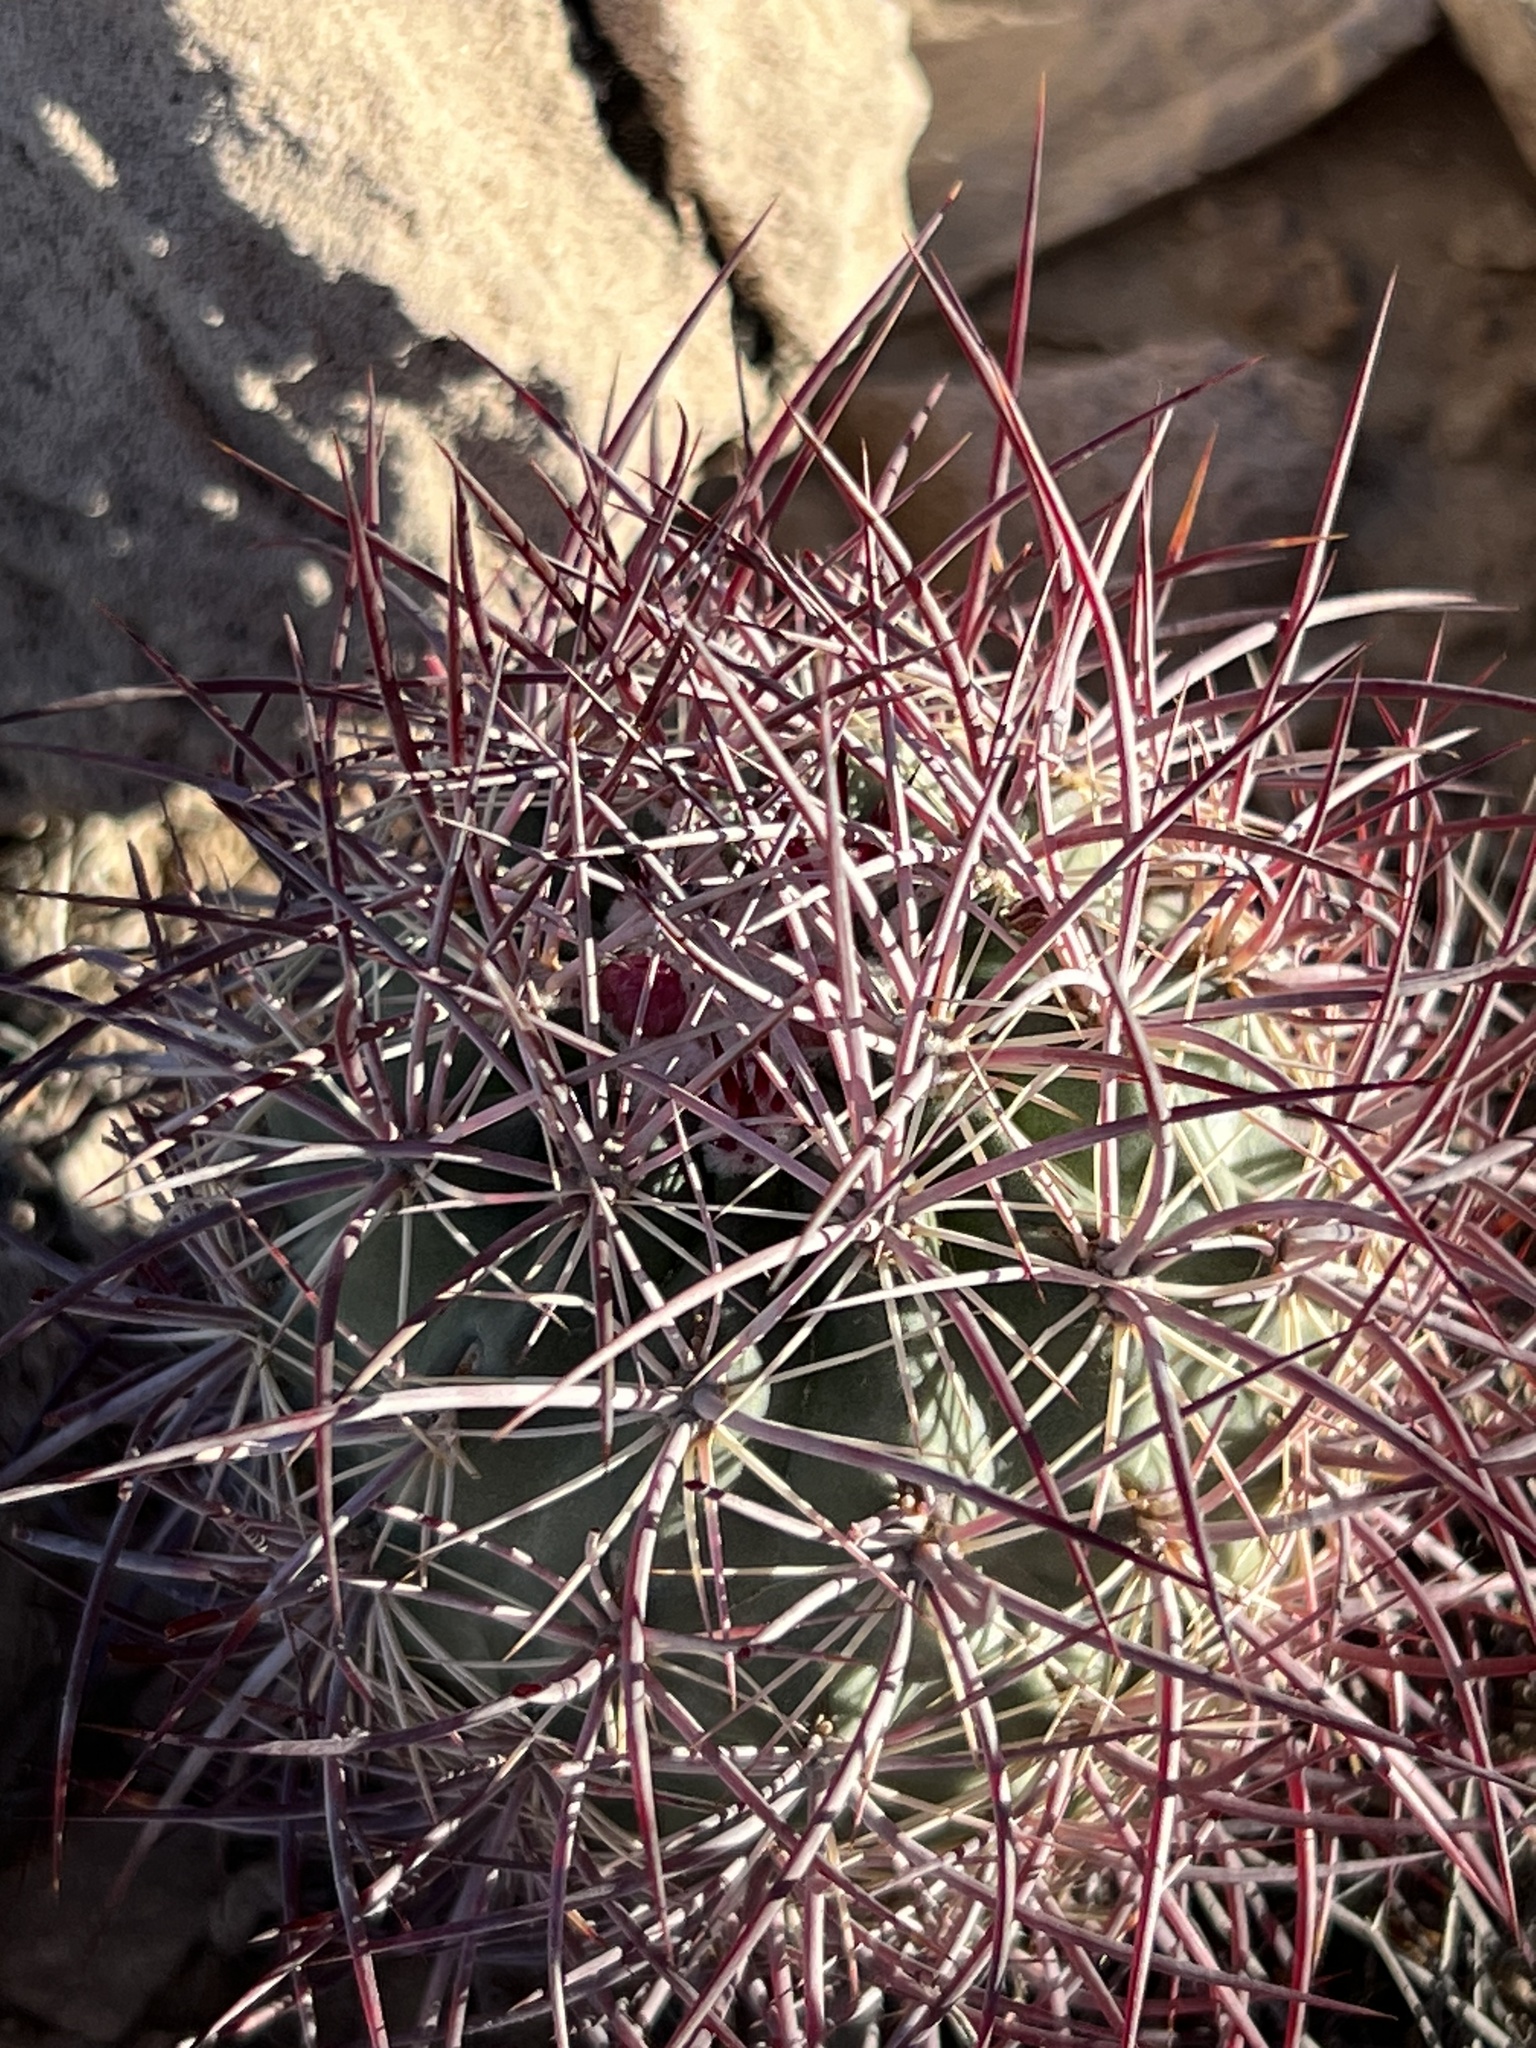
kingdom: Plantae
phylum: Tracheophyta
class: Magnoliopsida
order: Caryophyllales
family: Cactaceae
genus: Sclerocactus
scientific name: Sclerocactus johnsonii
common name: Eight-spine fishhook cactus
